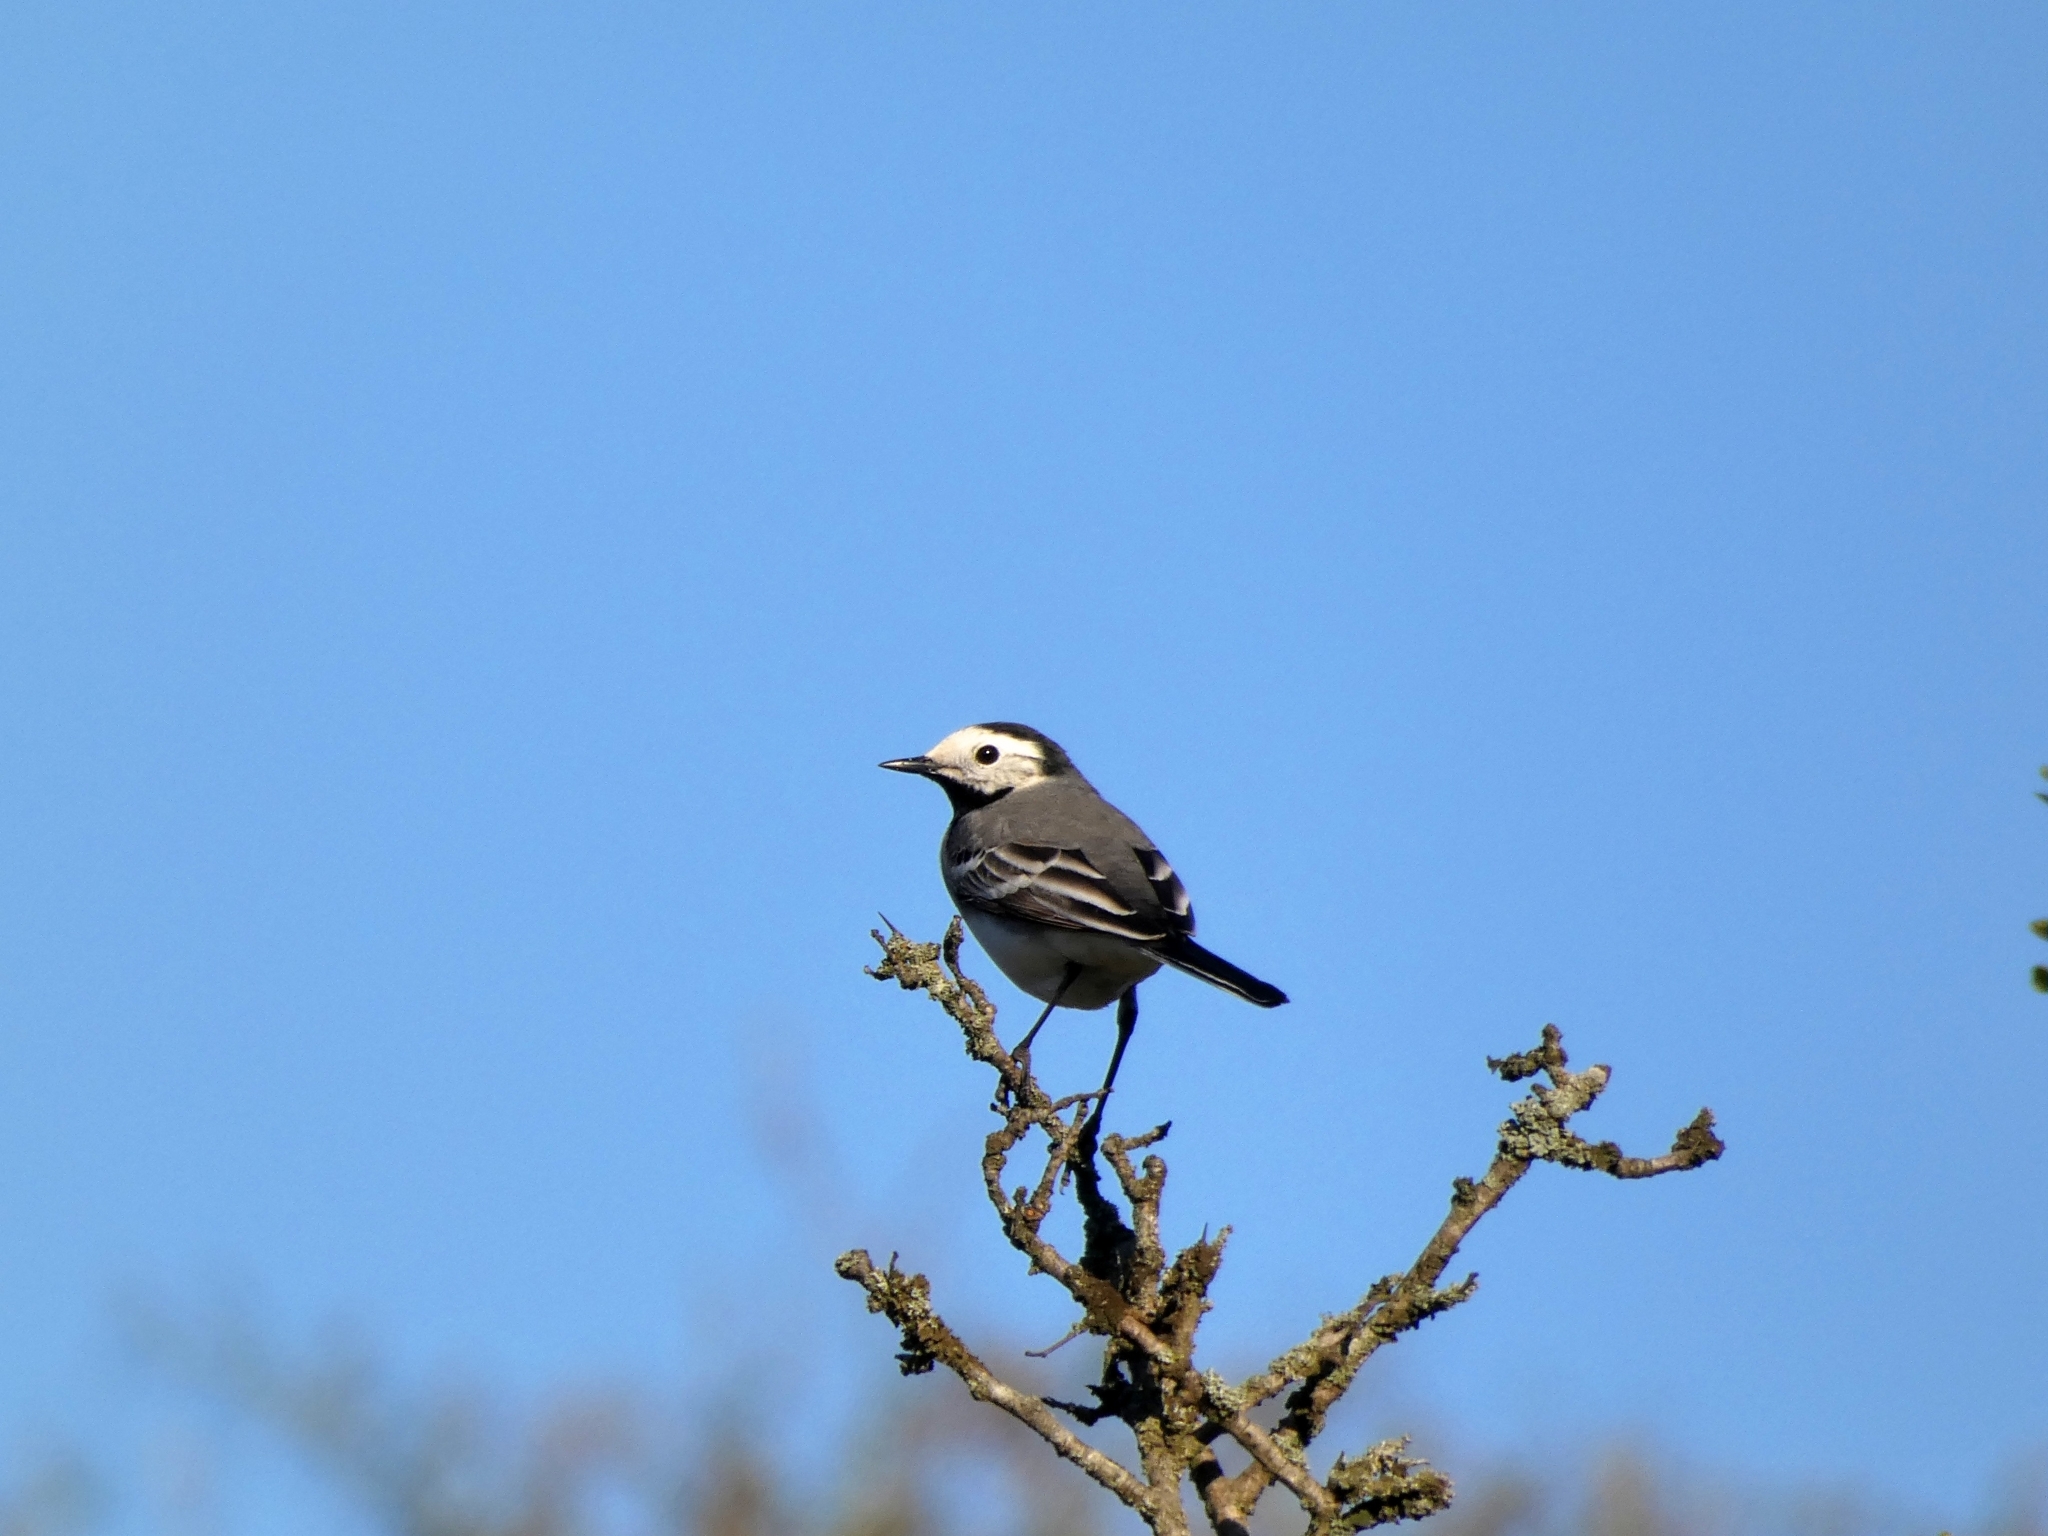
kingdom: Animalia
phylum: Chordata
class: Aves
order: Passeriformes
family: Motacillidae
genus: Motacilla
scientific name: Motacilla alba
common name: White wagtail
